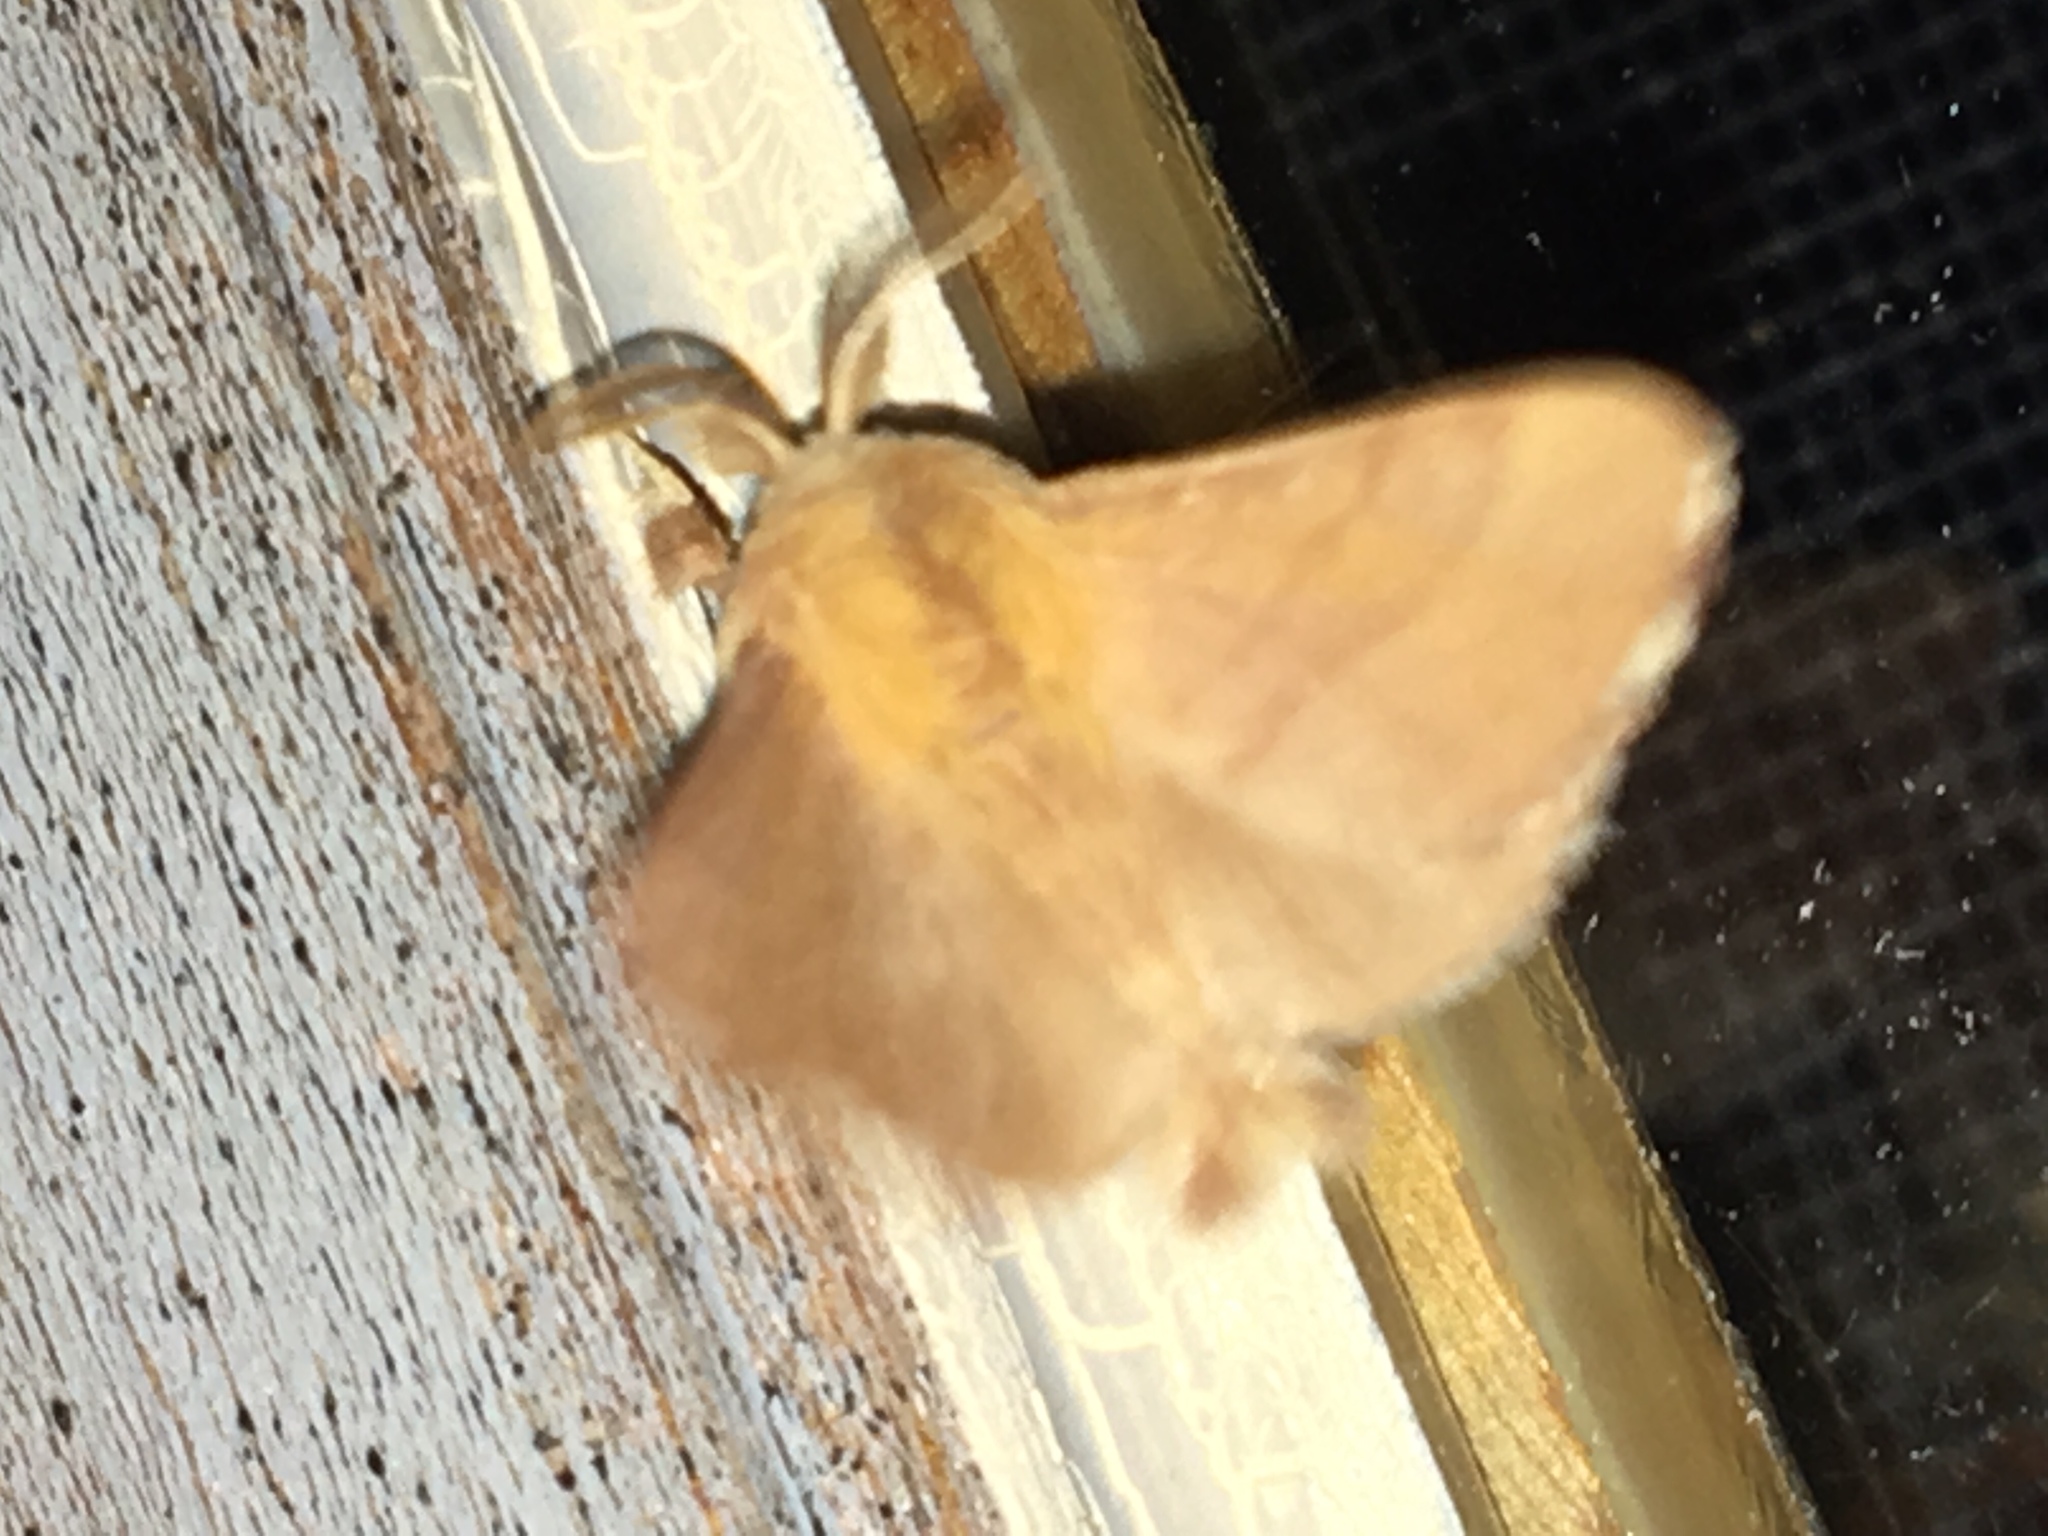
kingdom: Animalia
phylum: Arthropoda
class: Insecta
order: Lepidoptera
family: Lasiocampidae
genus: Malacosoma
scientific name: Malacosoma disstria
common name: Forest tent caterpillar
